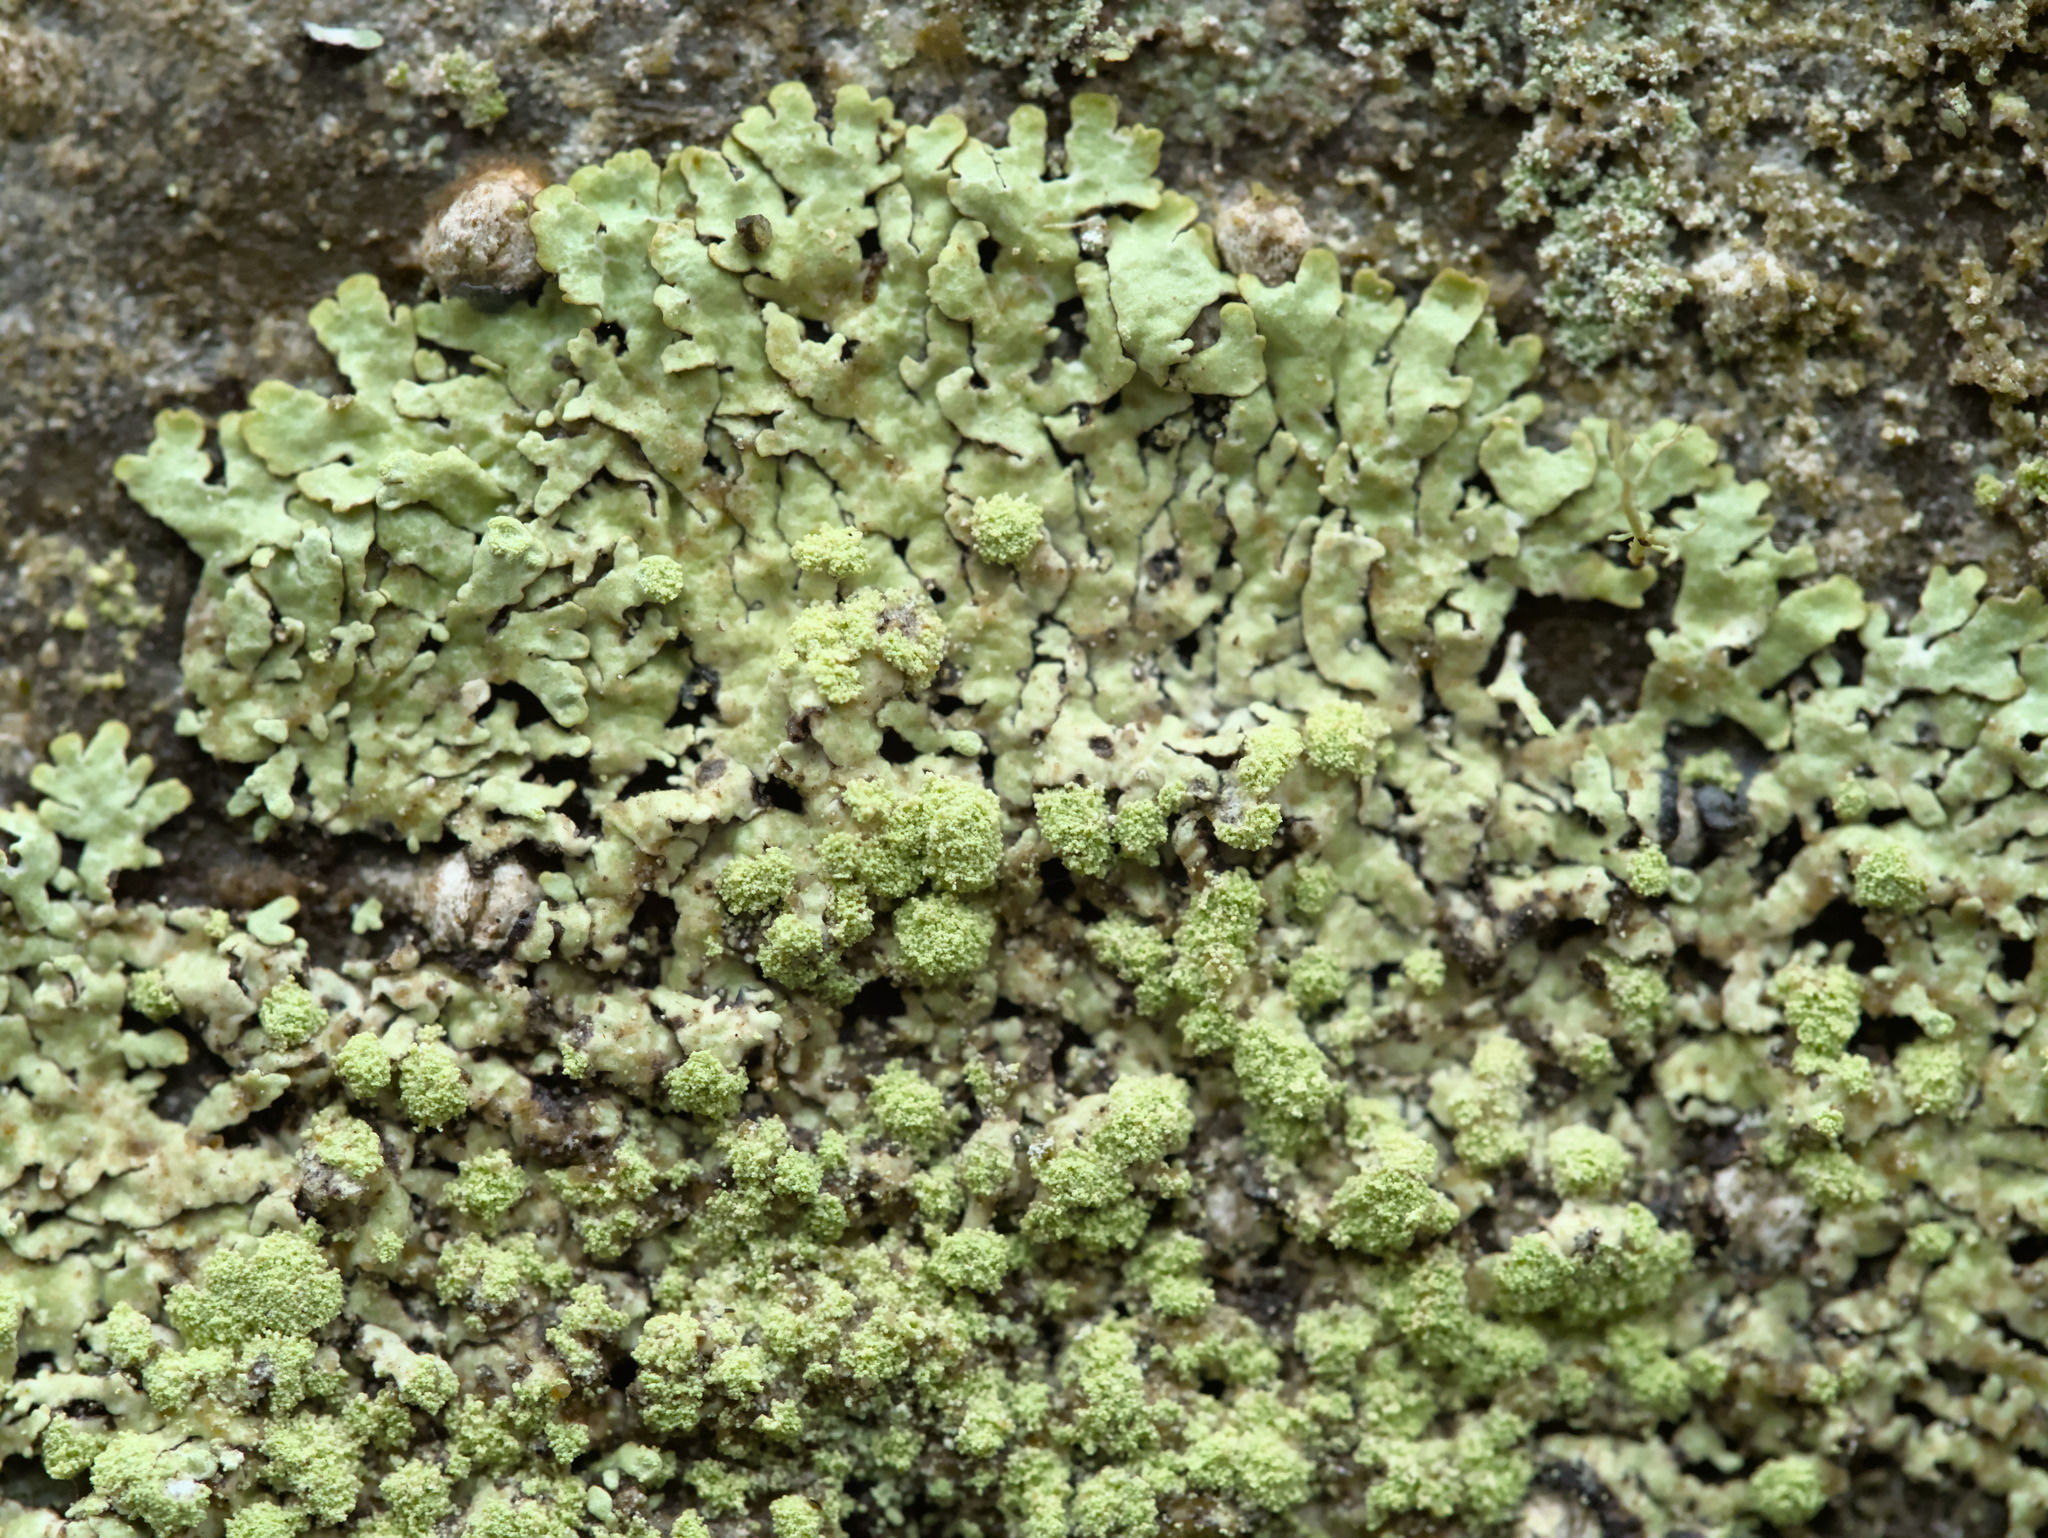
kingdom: Fungi
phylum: Ascomycota
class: Lecanoromycetes
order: Lecanorales
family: Parmeliaceae
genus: Parmeliopsis
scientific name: Parmeliopsis ambigua
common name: Green starburst lichen
